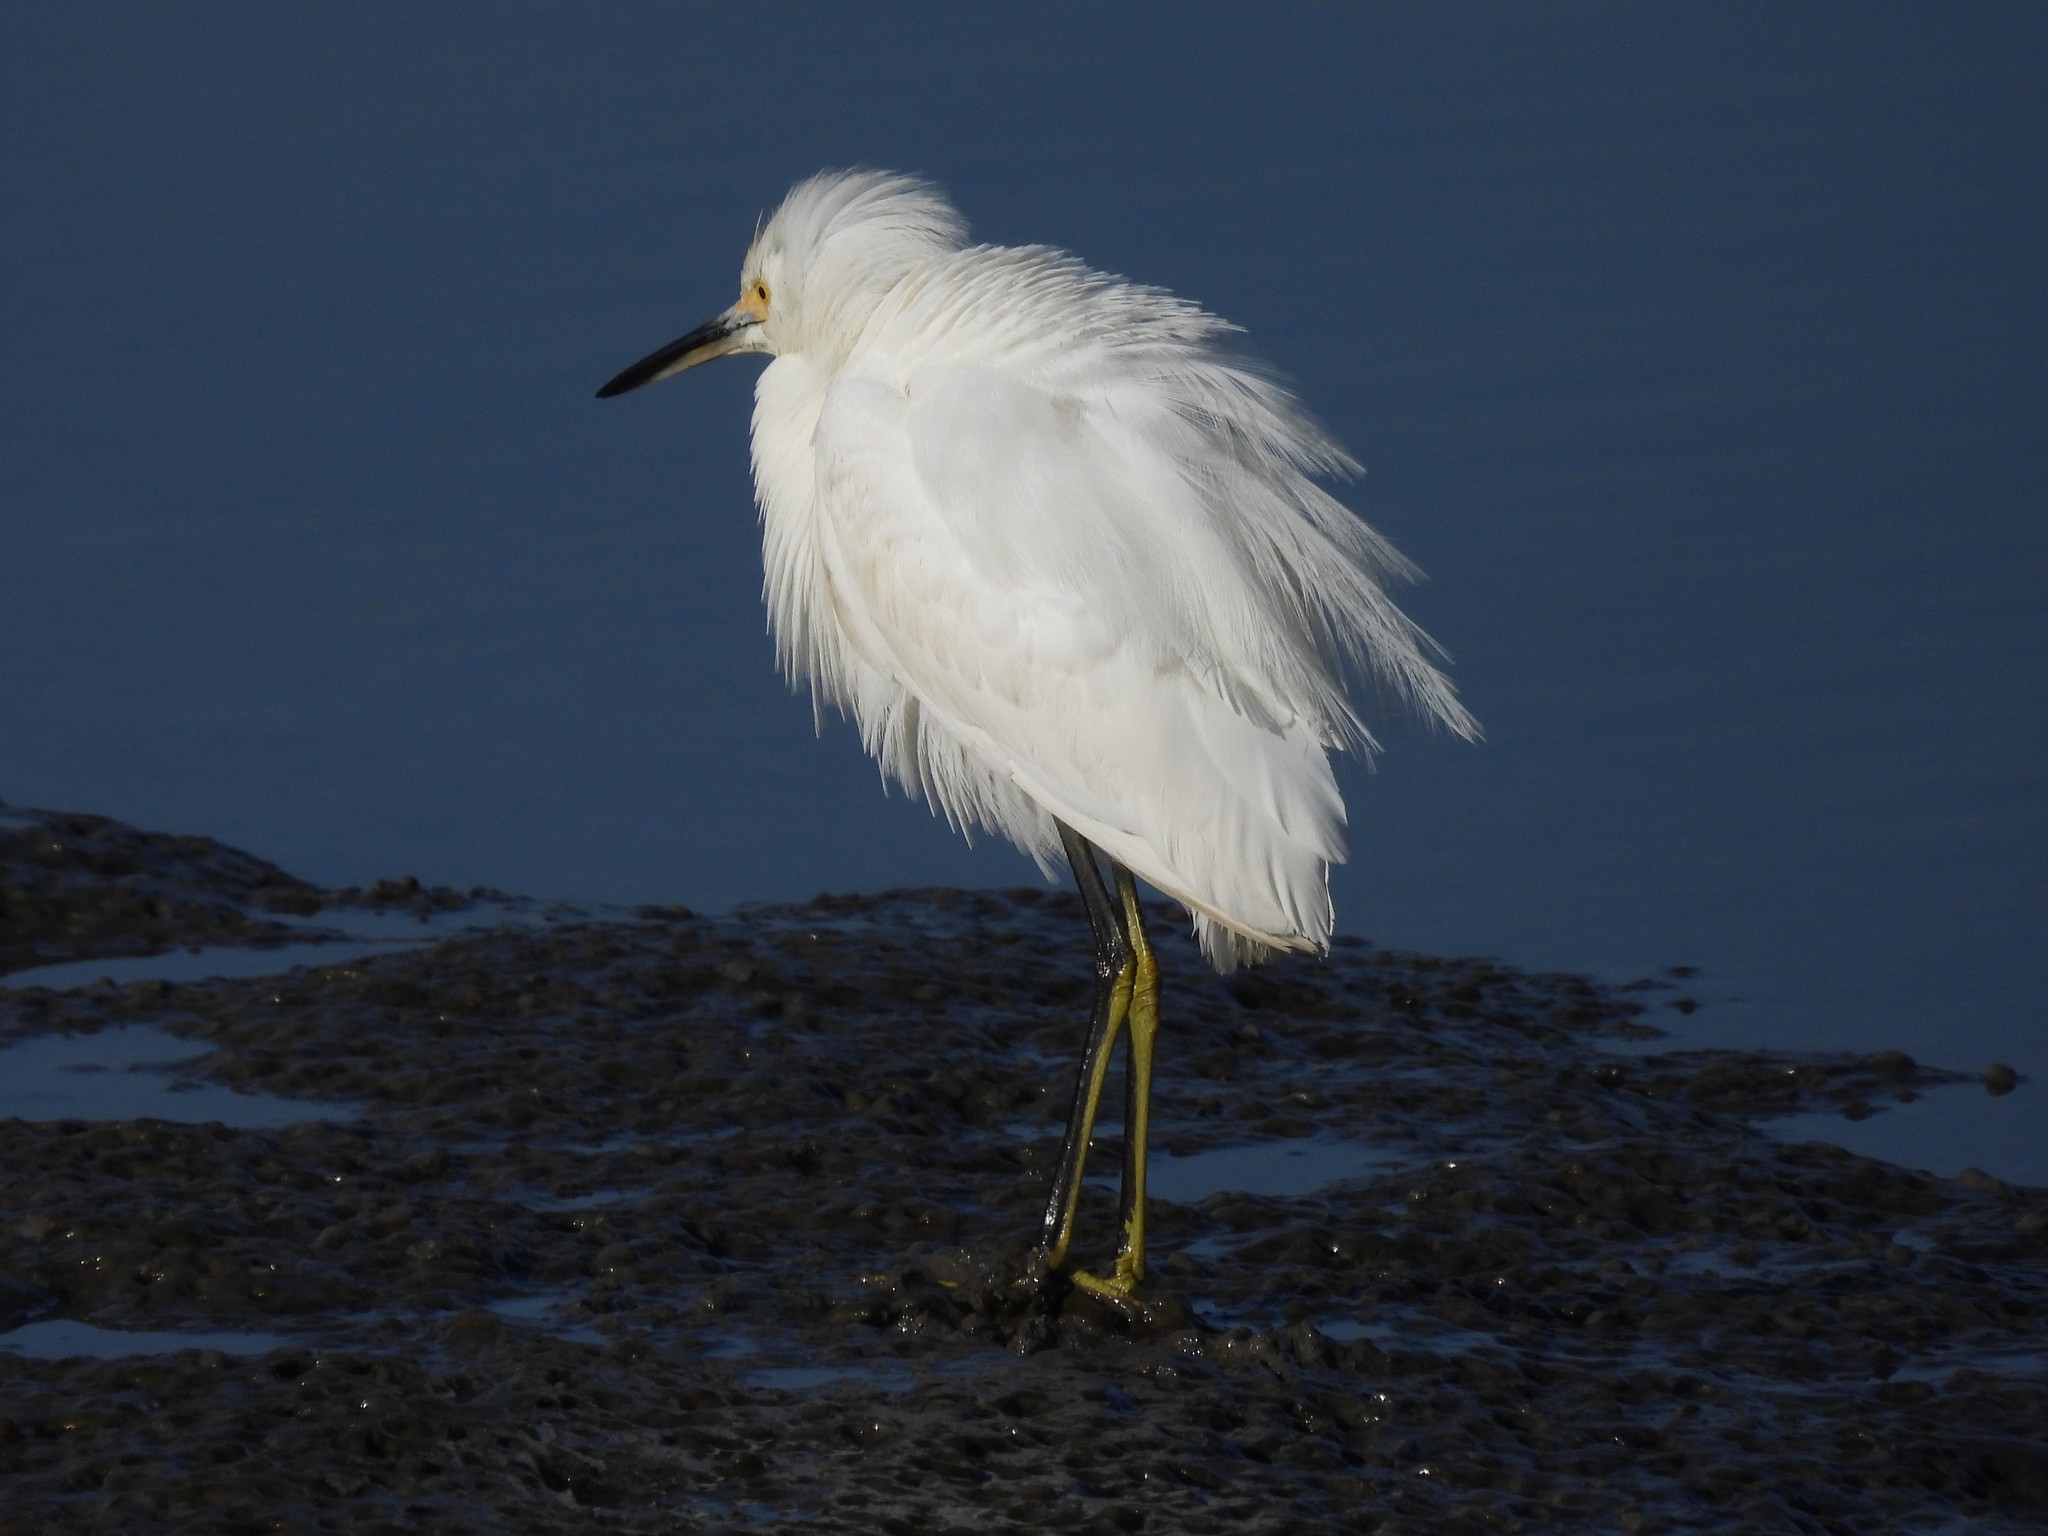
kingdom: Animalia
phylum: Chordata
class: Aves
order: Pelecaniformes
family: Ardeidae
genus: Egretta
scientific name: Egretta thula
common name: Snowy egret
